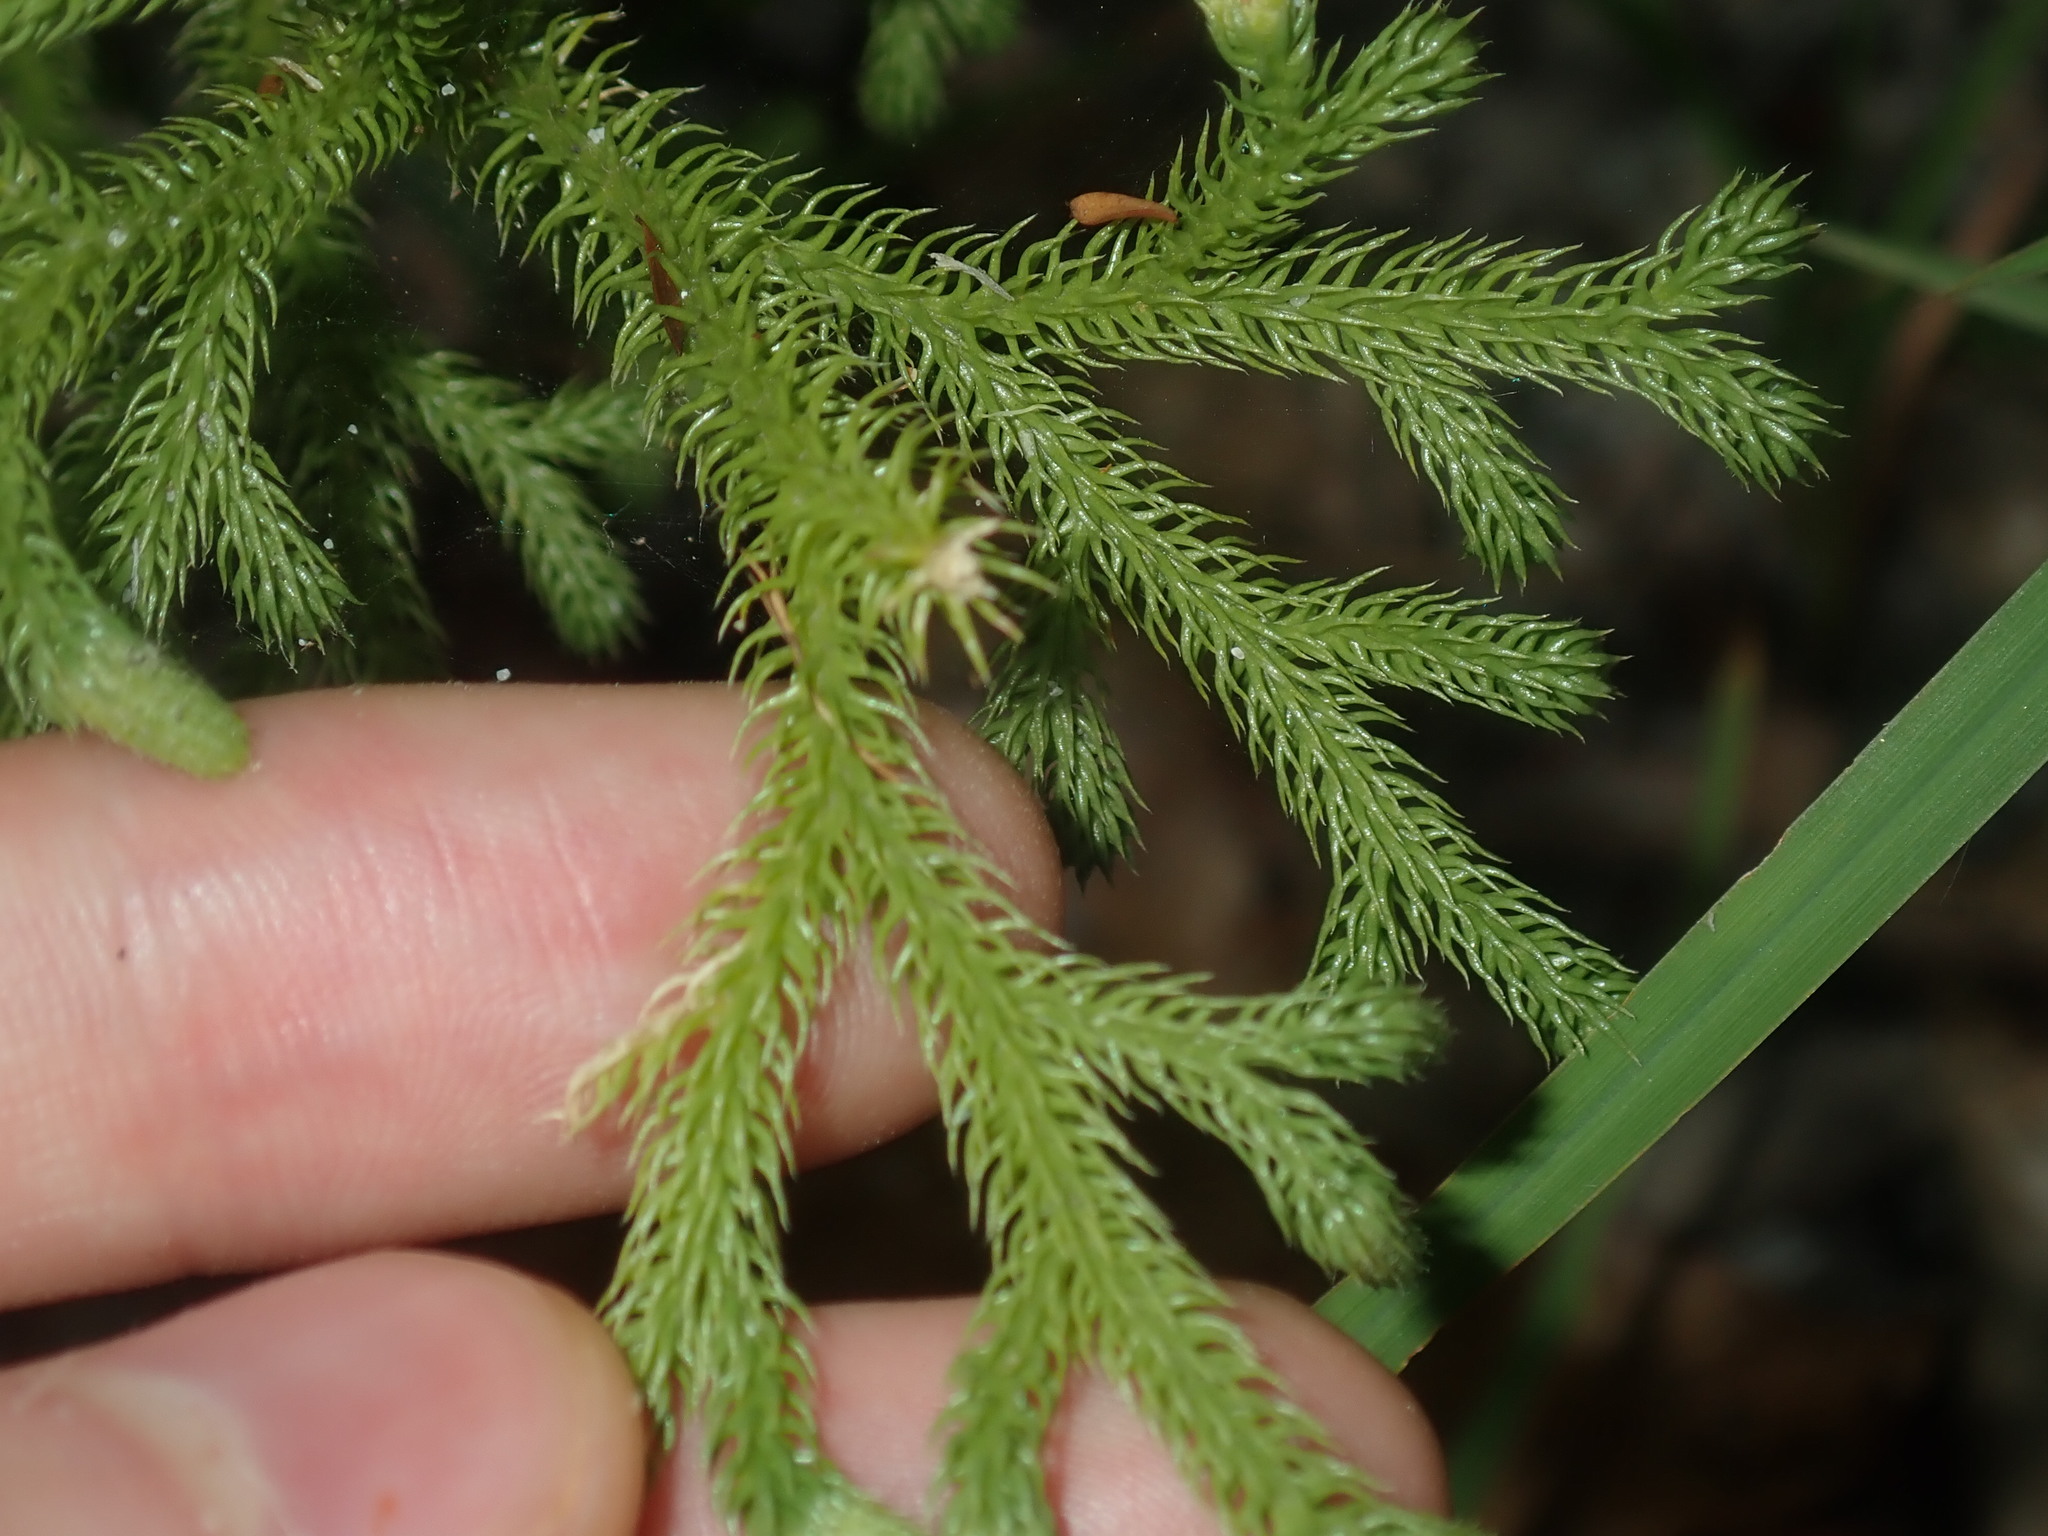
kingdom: Plantae
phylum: Tracheophyta
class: Lycopodiopsida
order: Lycopodiales
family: Lycopodiaceae
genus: Palhinhaea
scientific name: Palhinhaea cernua
